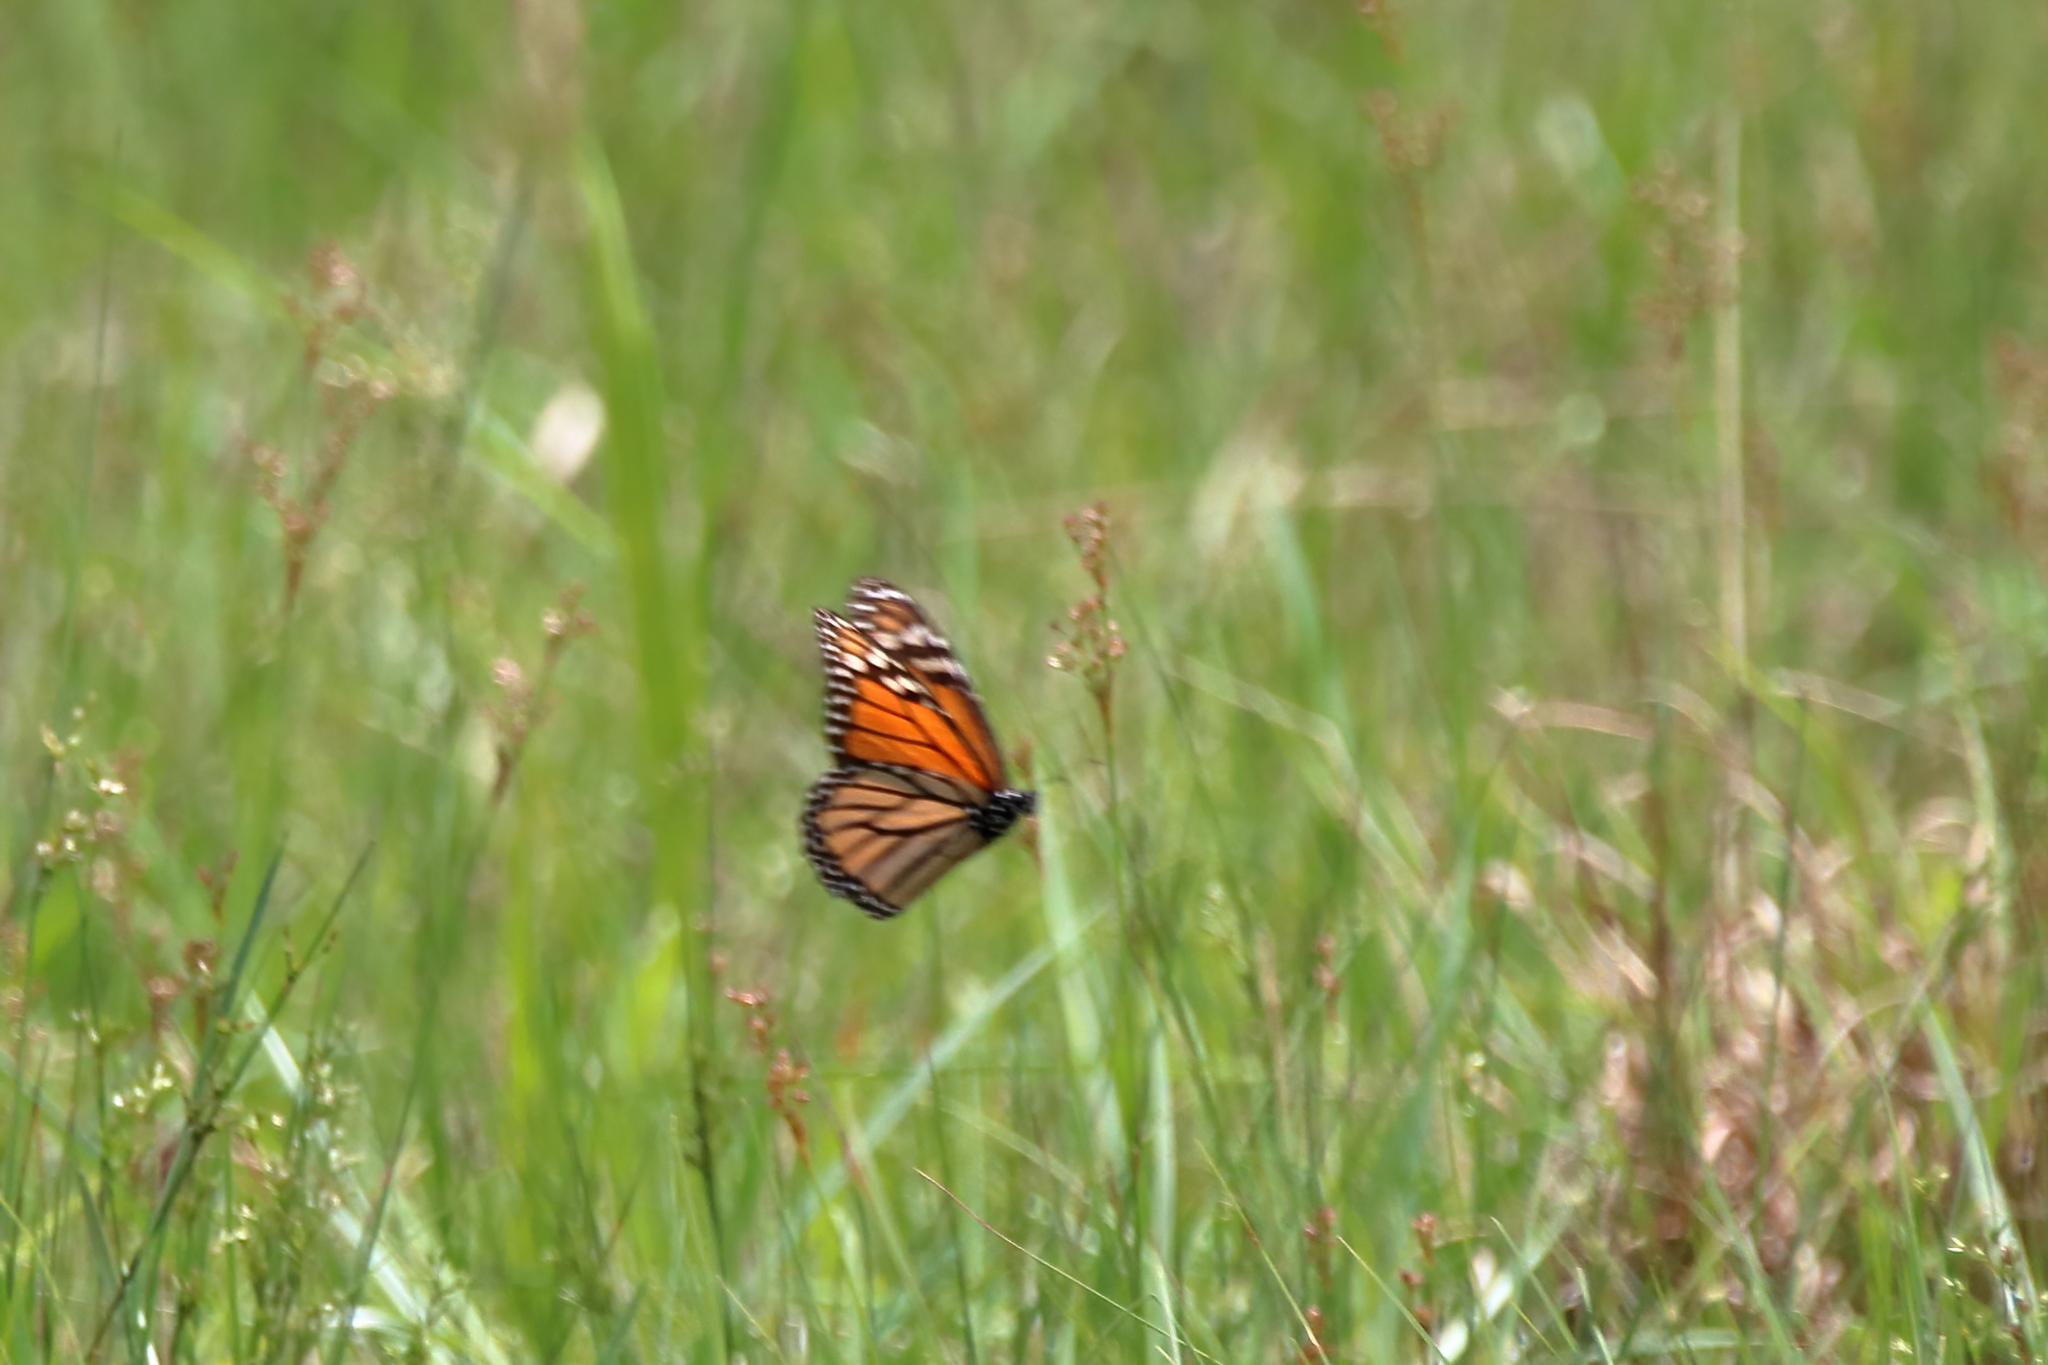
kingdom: Animalia
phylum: Arthropoda
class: Insecta
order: Lepidoptera
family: Nymphalidae
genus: Danaus
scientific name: Danaus plexippus
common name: Monarch
